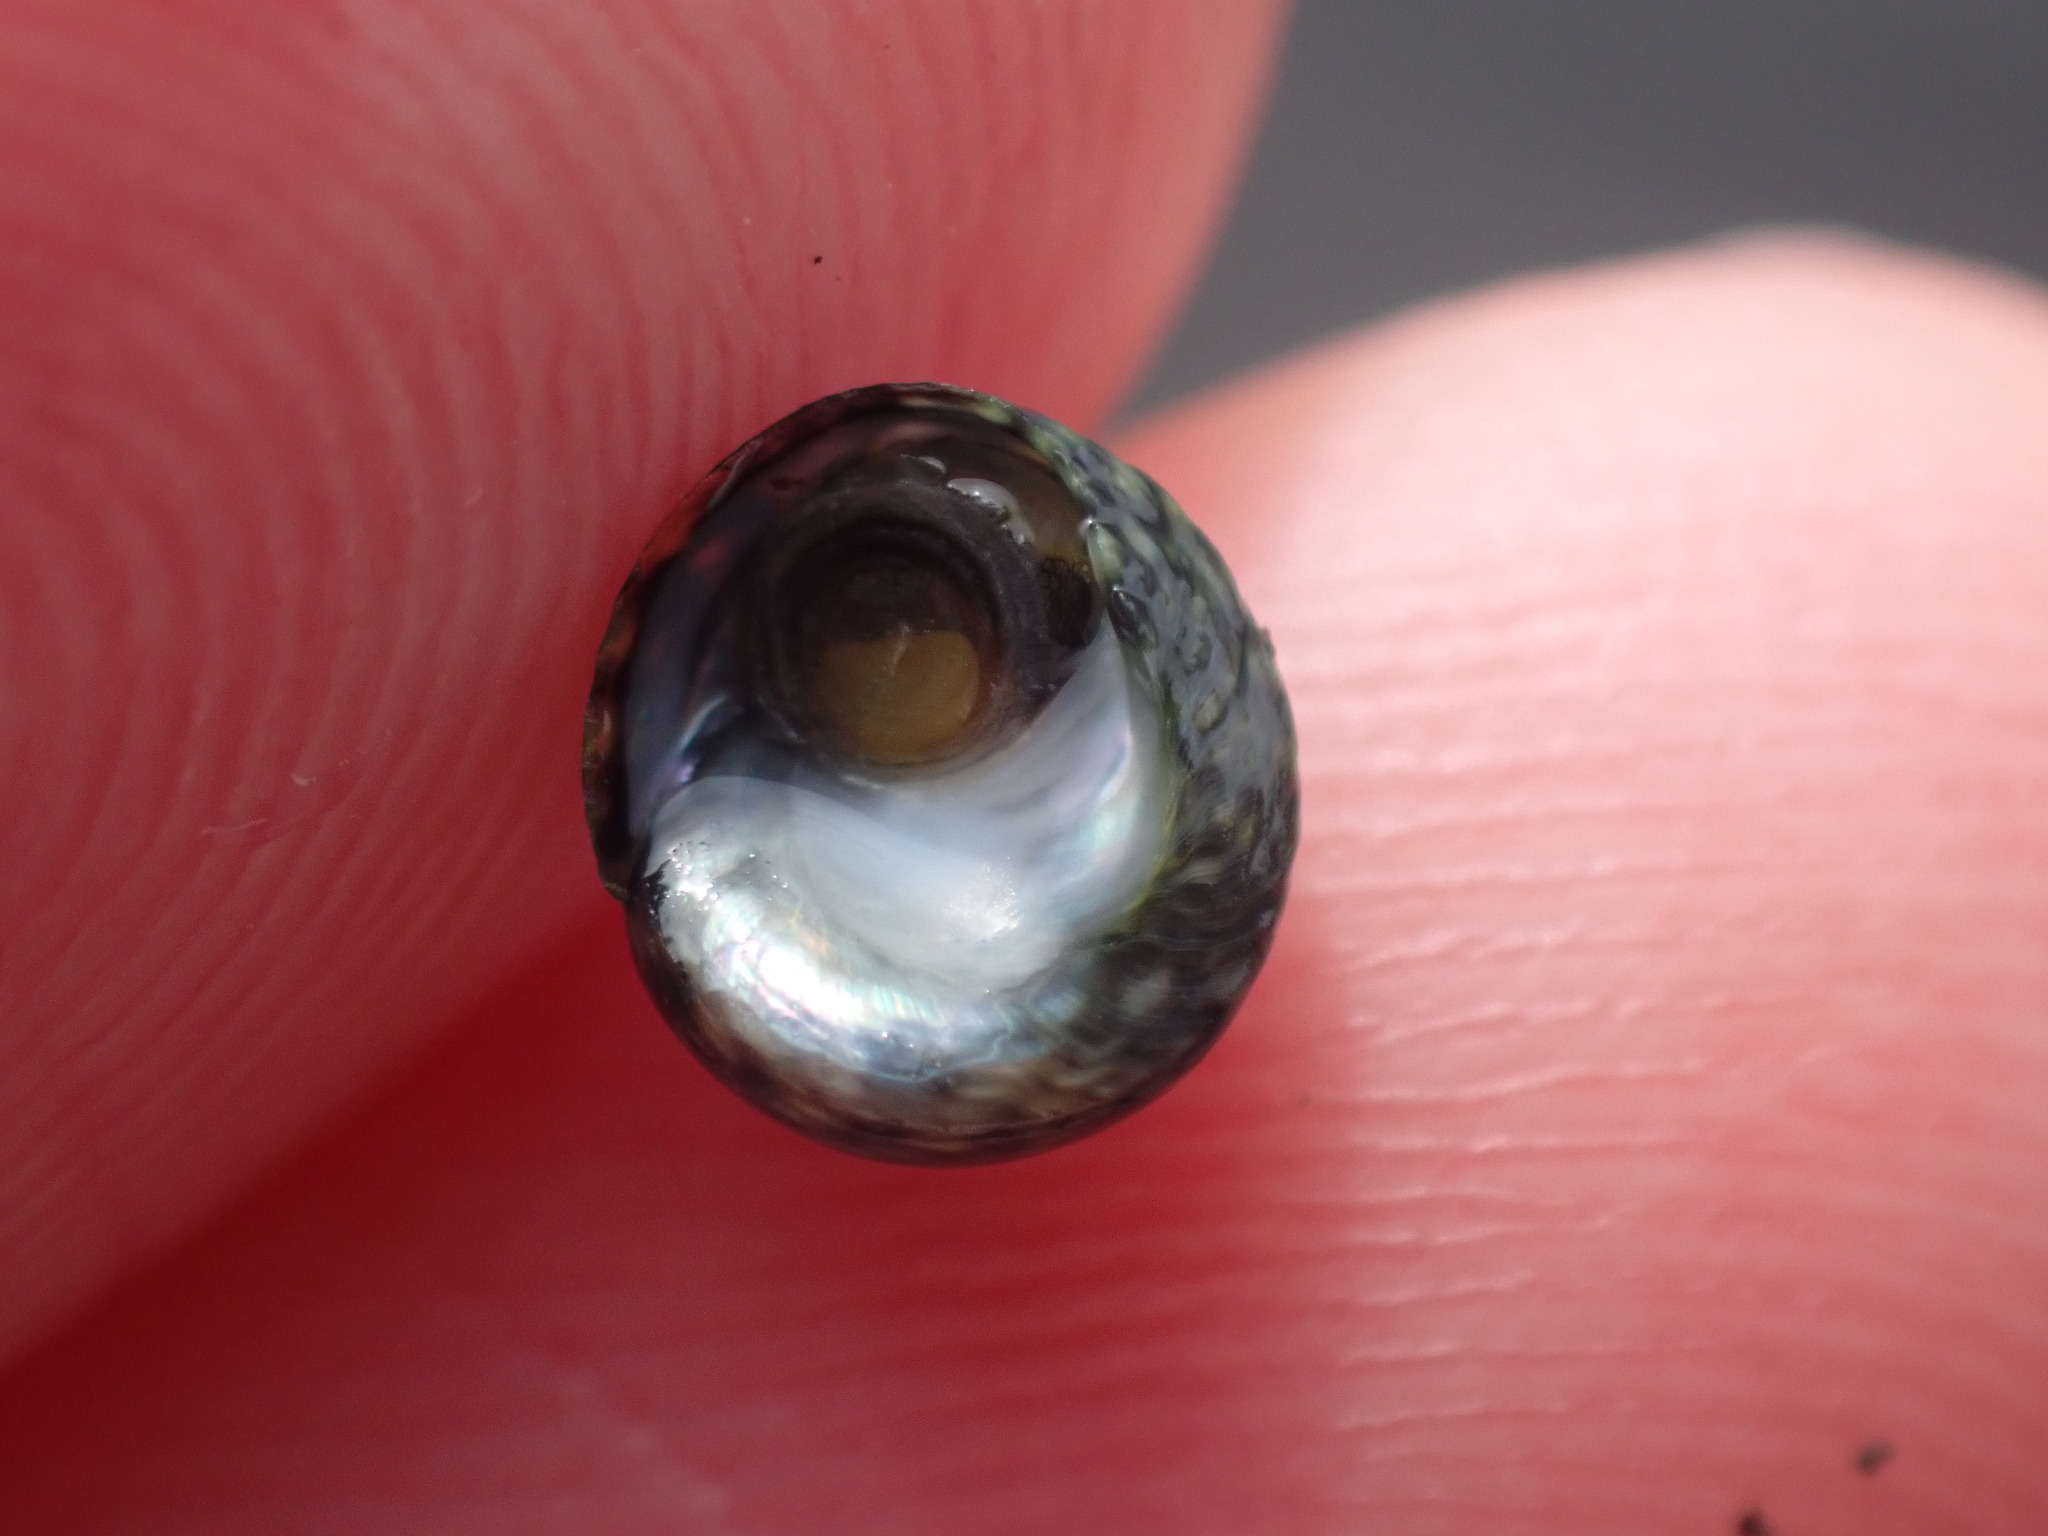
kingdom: Animalia
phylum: Mollusca
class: Gastropoda
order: Trochida
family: Trochidae
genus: Diloma
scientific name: Diloma coracinum
